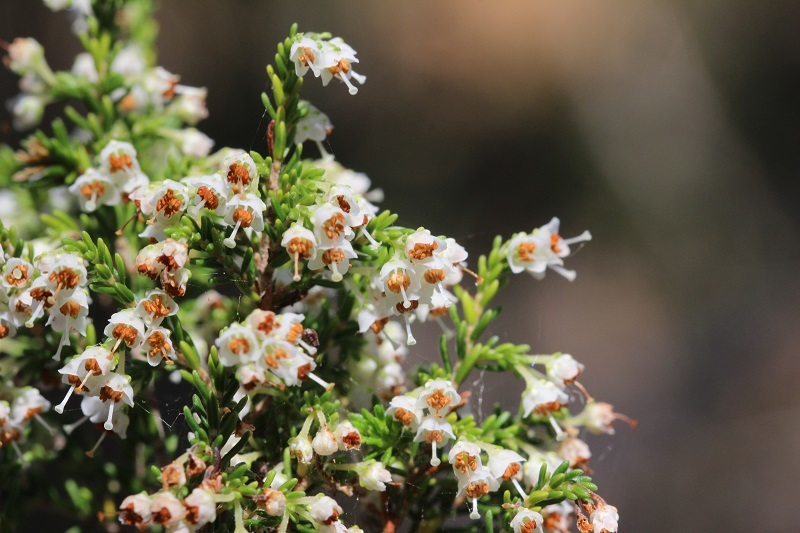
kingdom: Plantae
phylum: Tracheophyta
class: Magnoliopsida
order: Ericales
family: Ericaceae
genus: Erica
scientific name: Erica peltata
